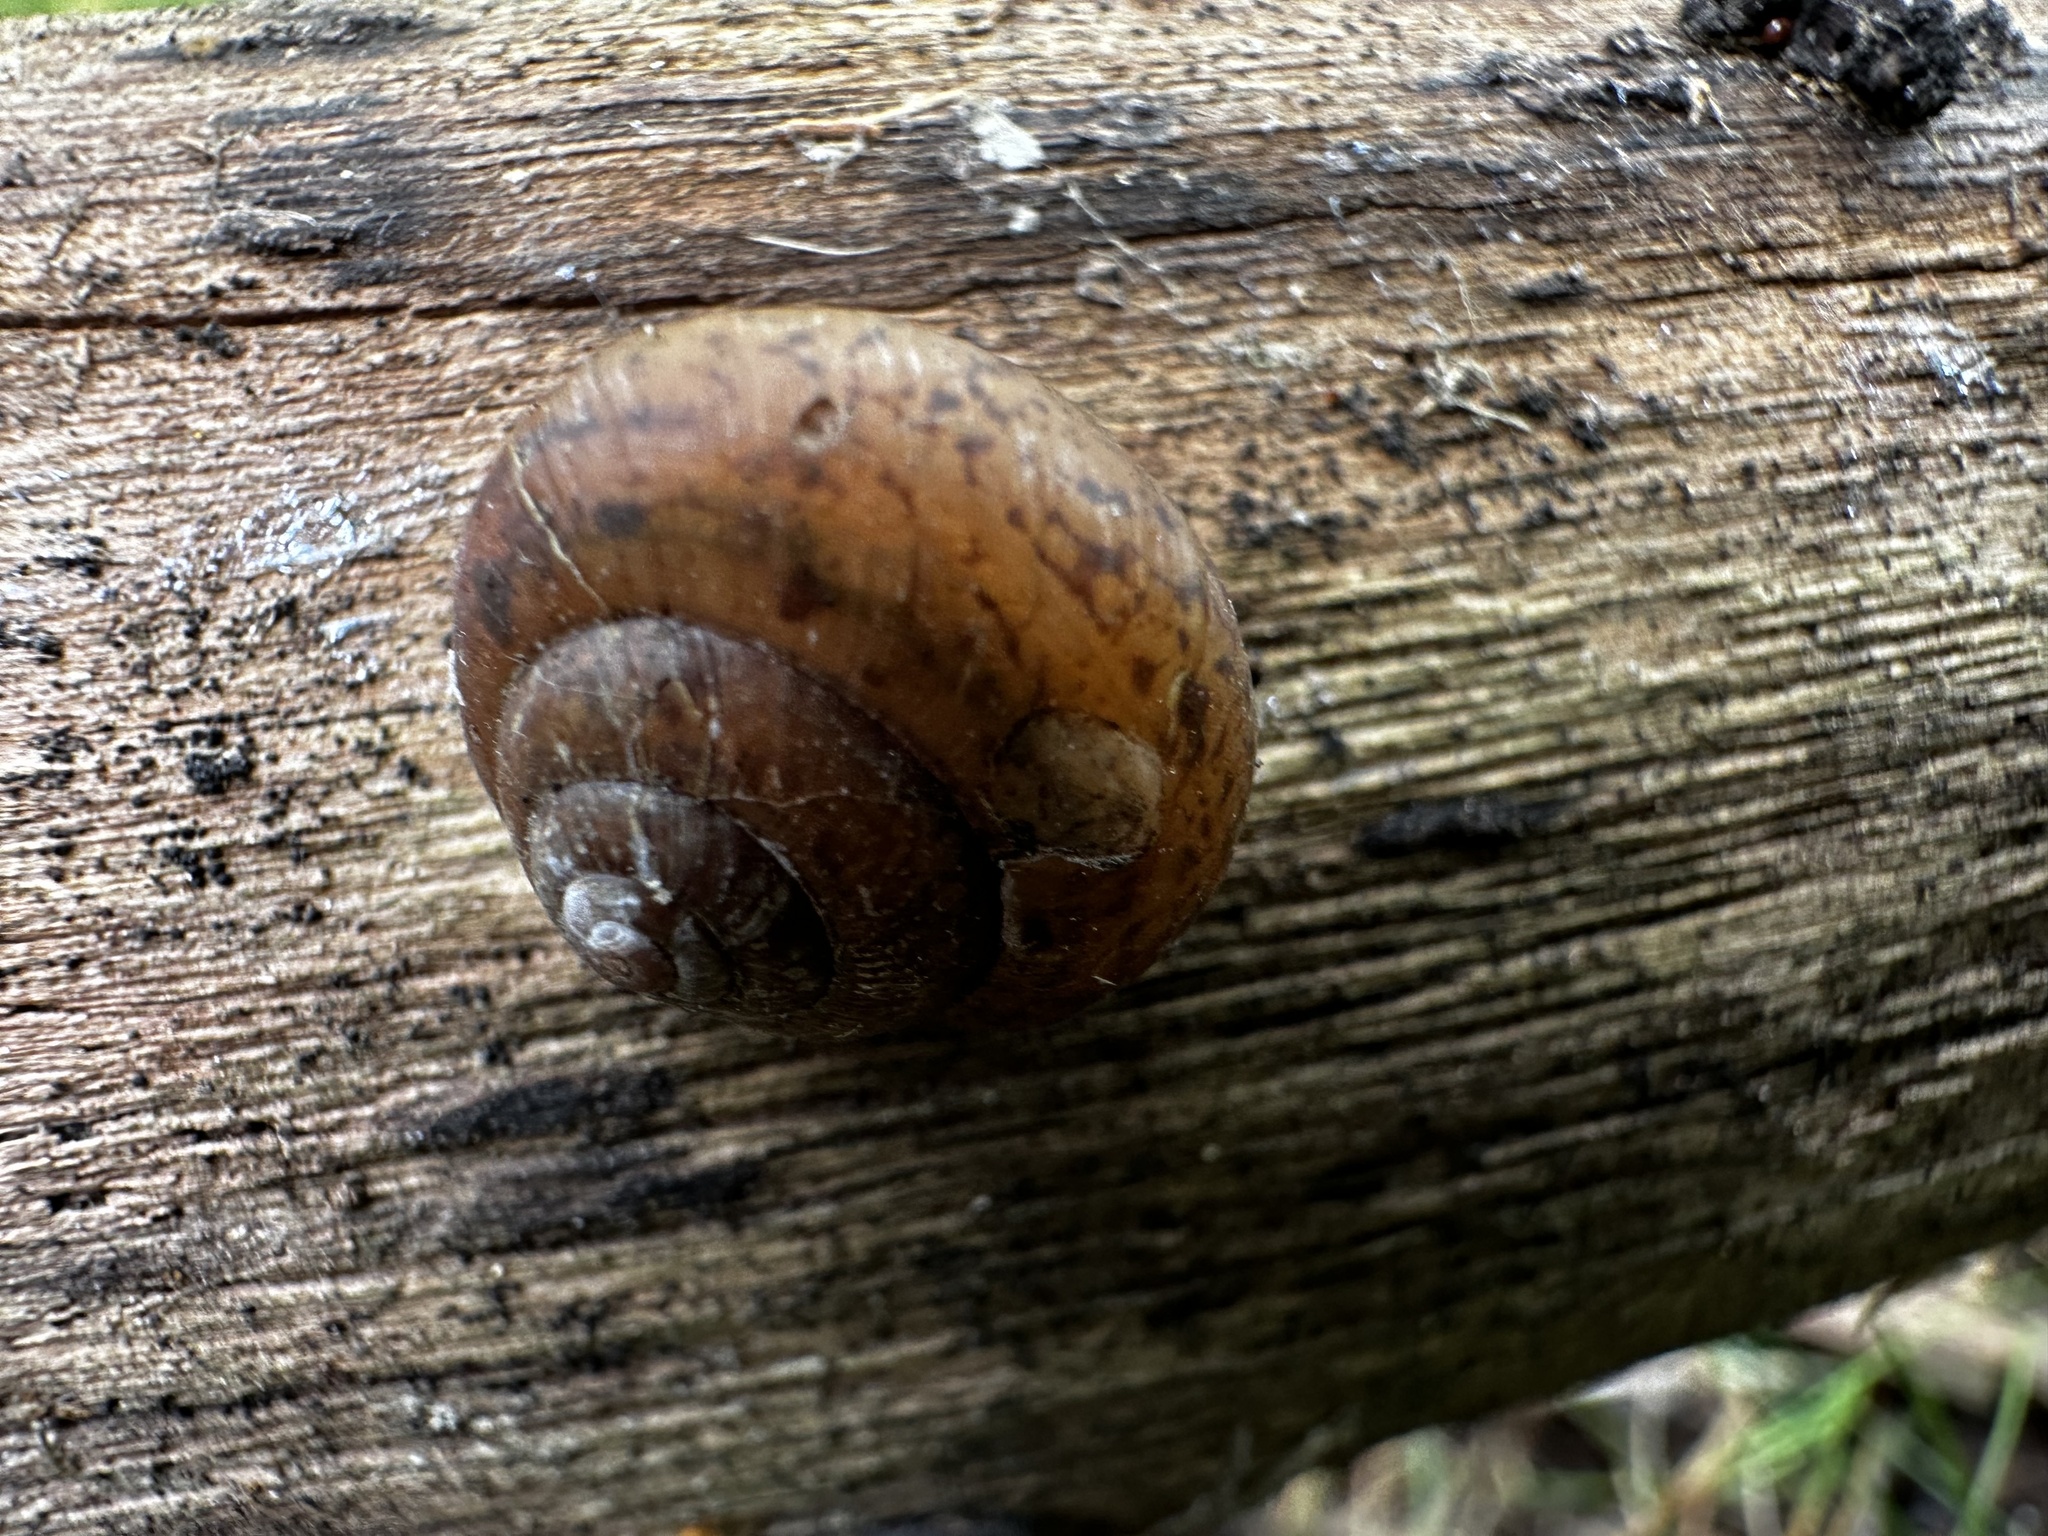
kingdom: Animalia
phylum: Mollusca
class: Gastropoda
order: Stylommatophora
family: Camaenidae
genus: Fruticicola
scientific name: Fruticicola fruticum
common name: Bush snail
